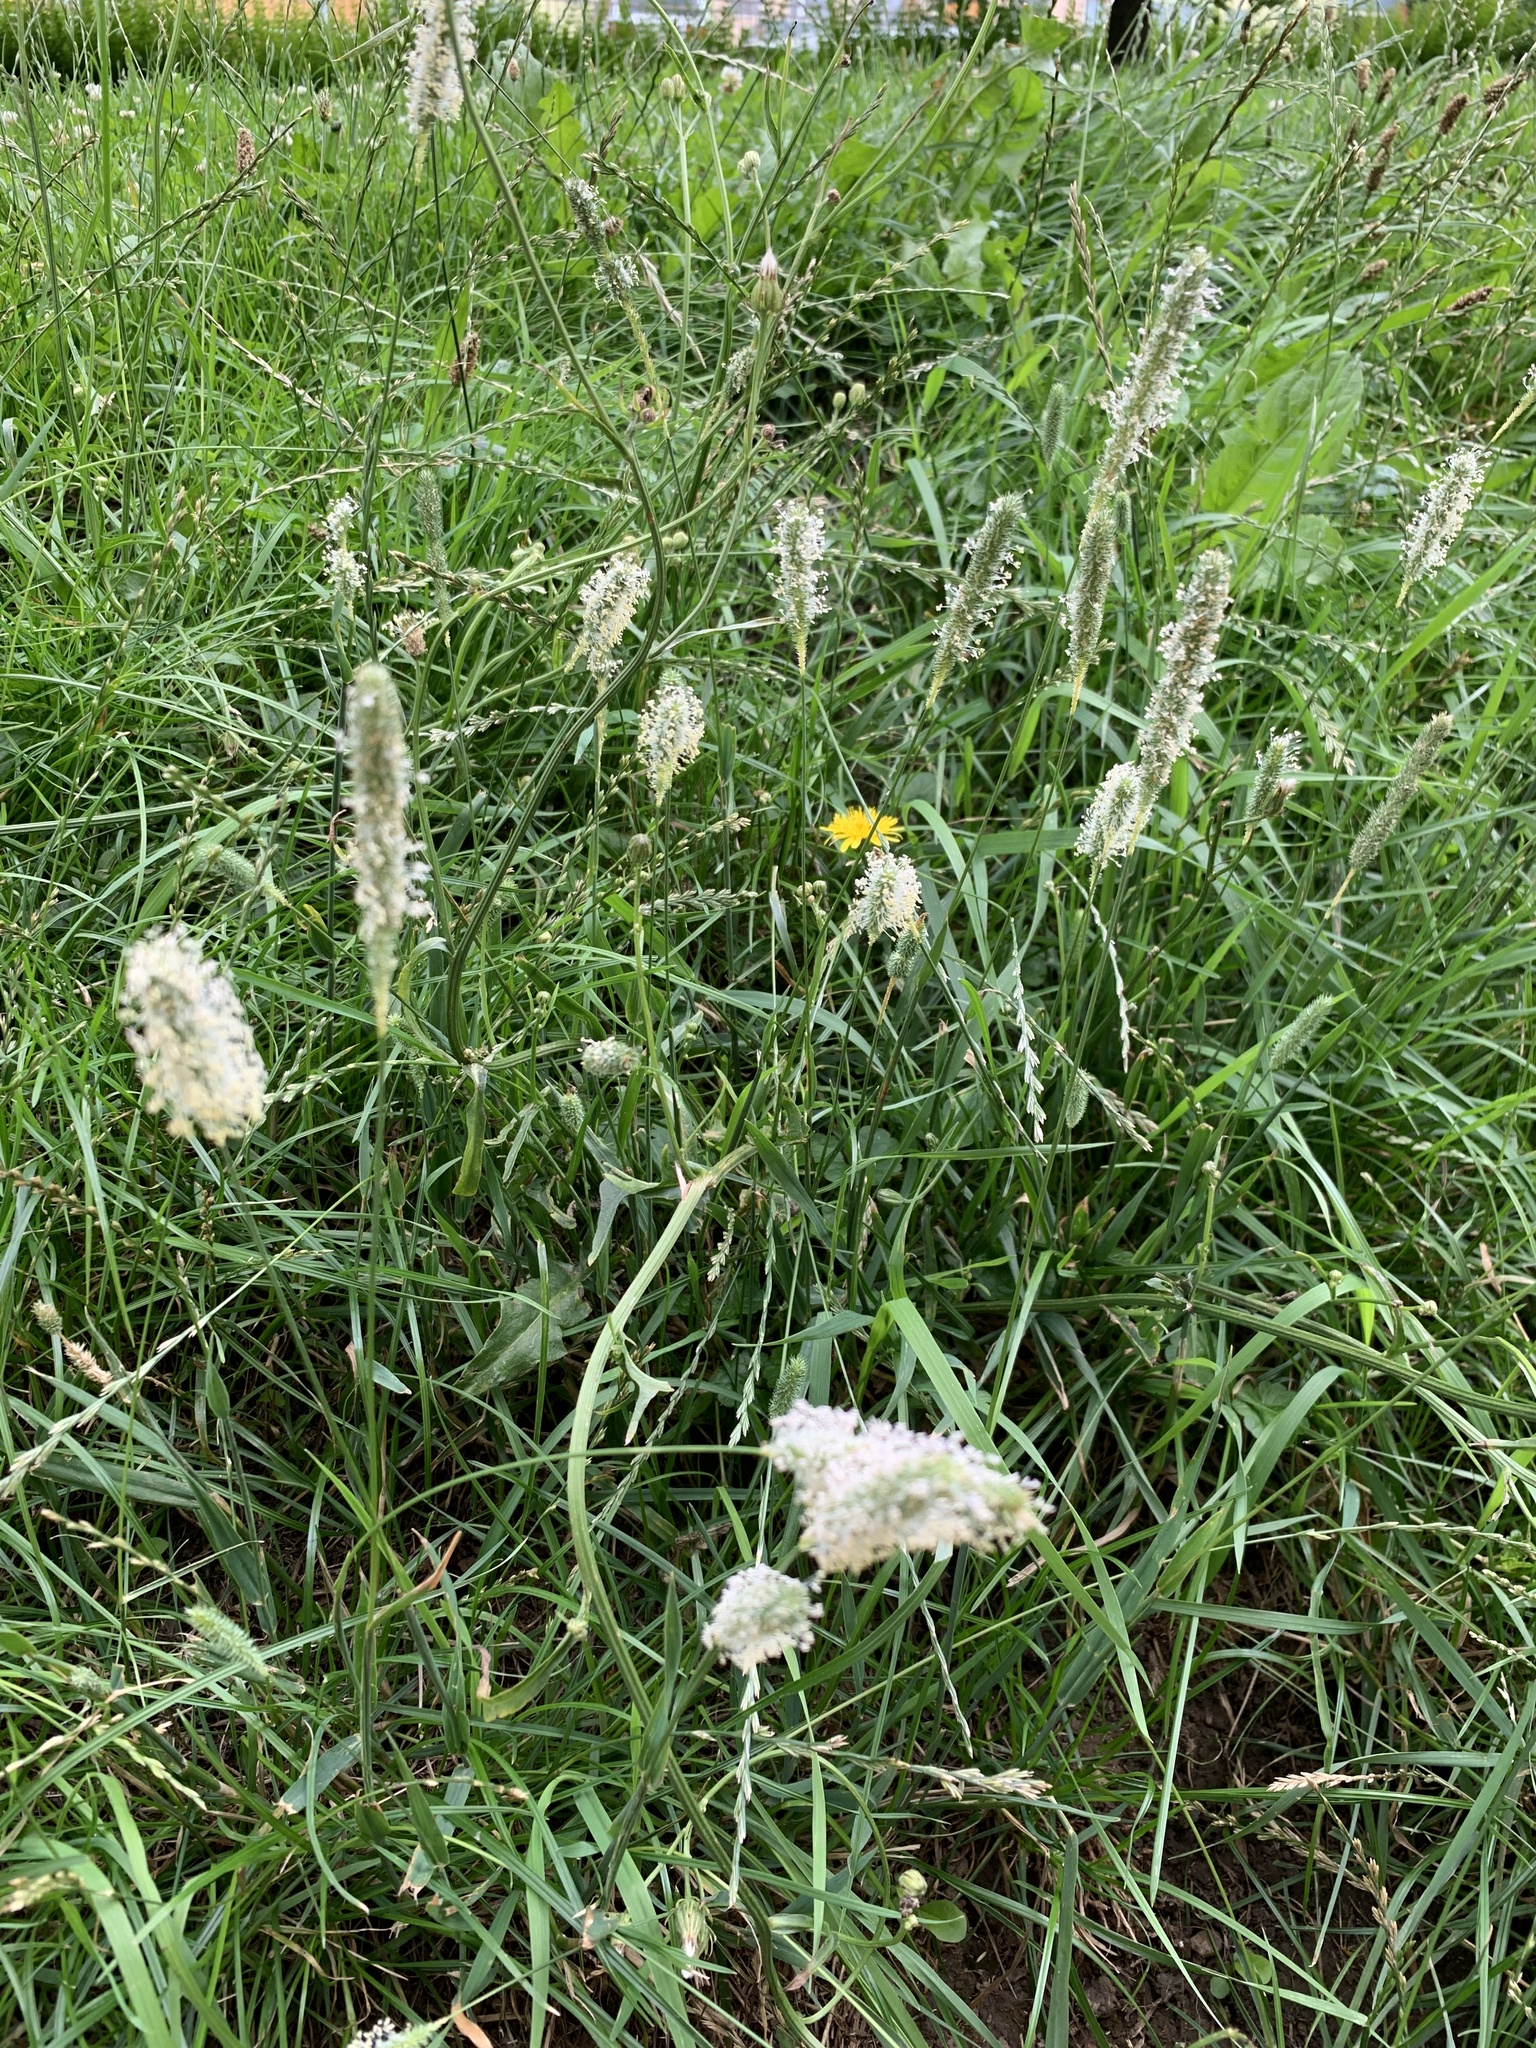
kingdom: Plantae
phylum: Tracheophyta
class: Liliopsida
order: Poales
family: Poaceae
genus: Phleum
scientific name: Phleum pratense
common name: Timothy grass
